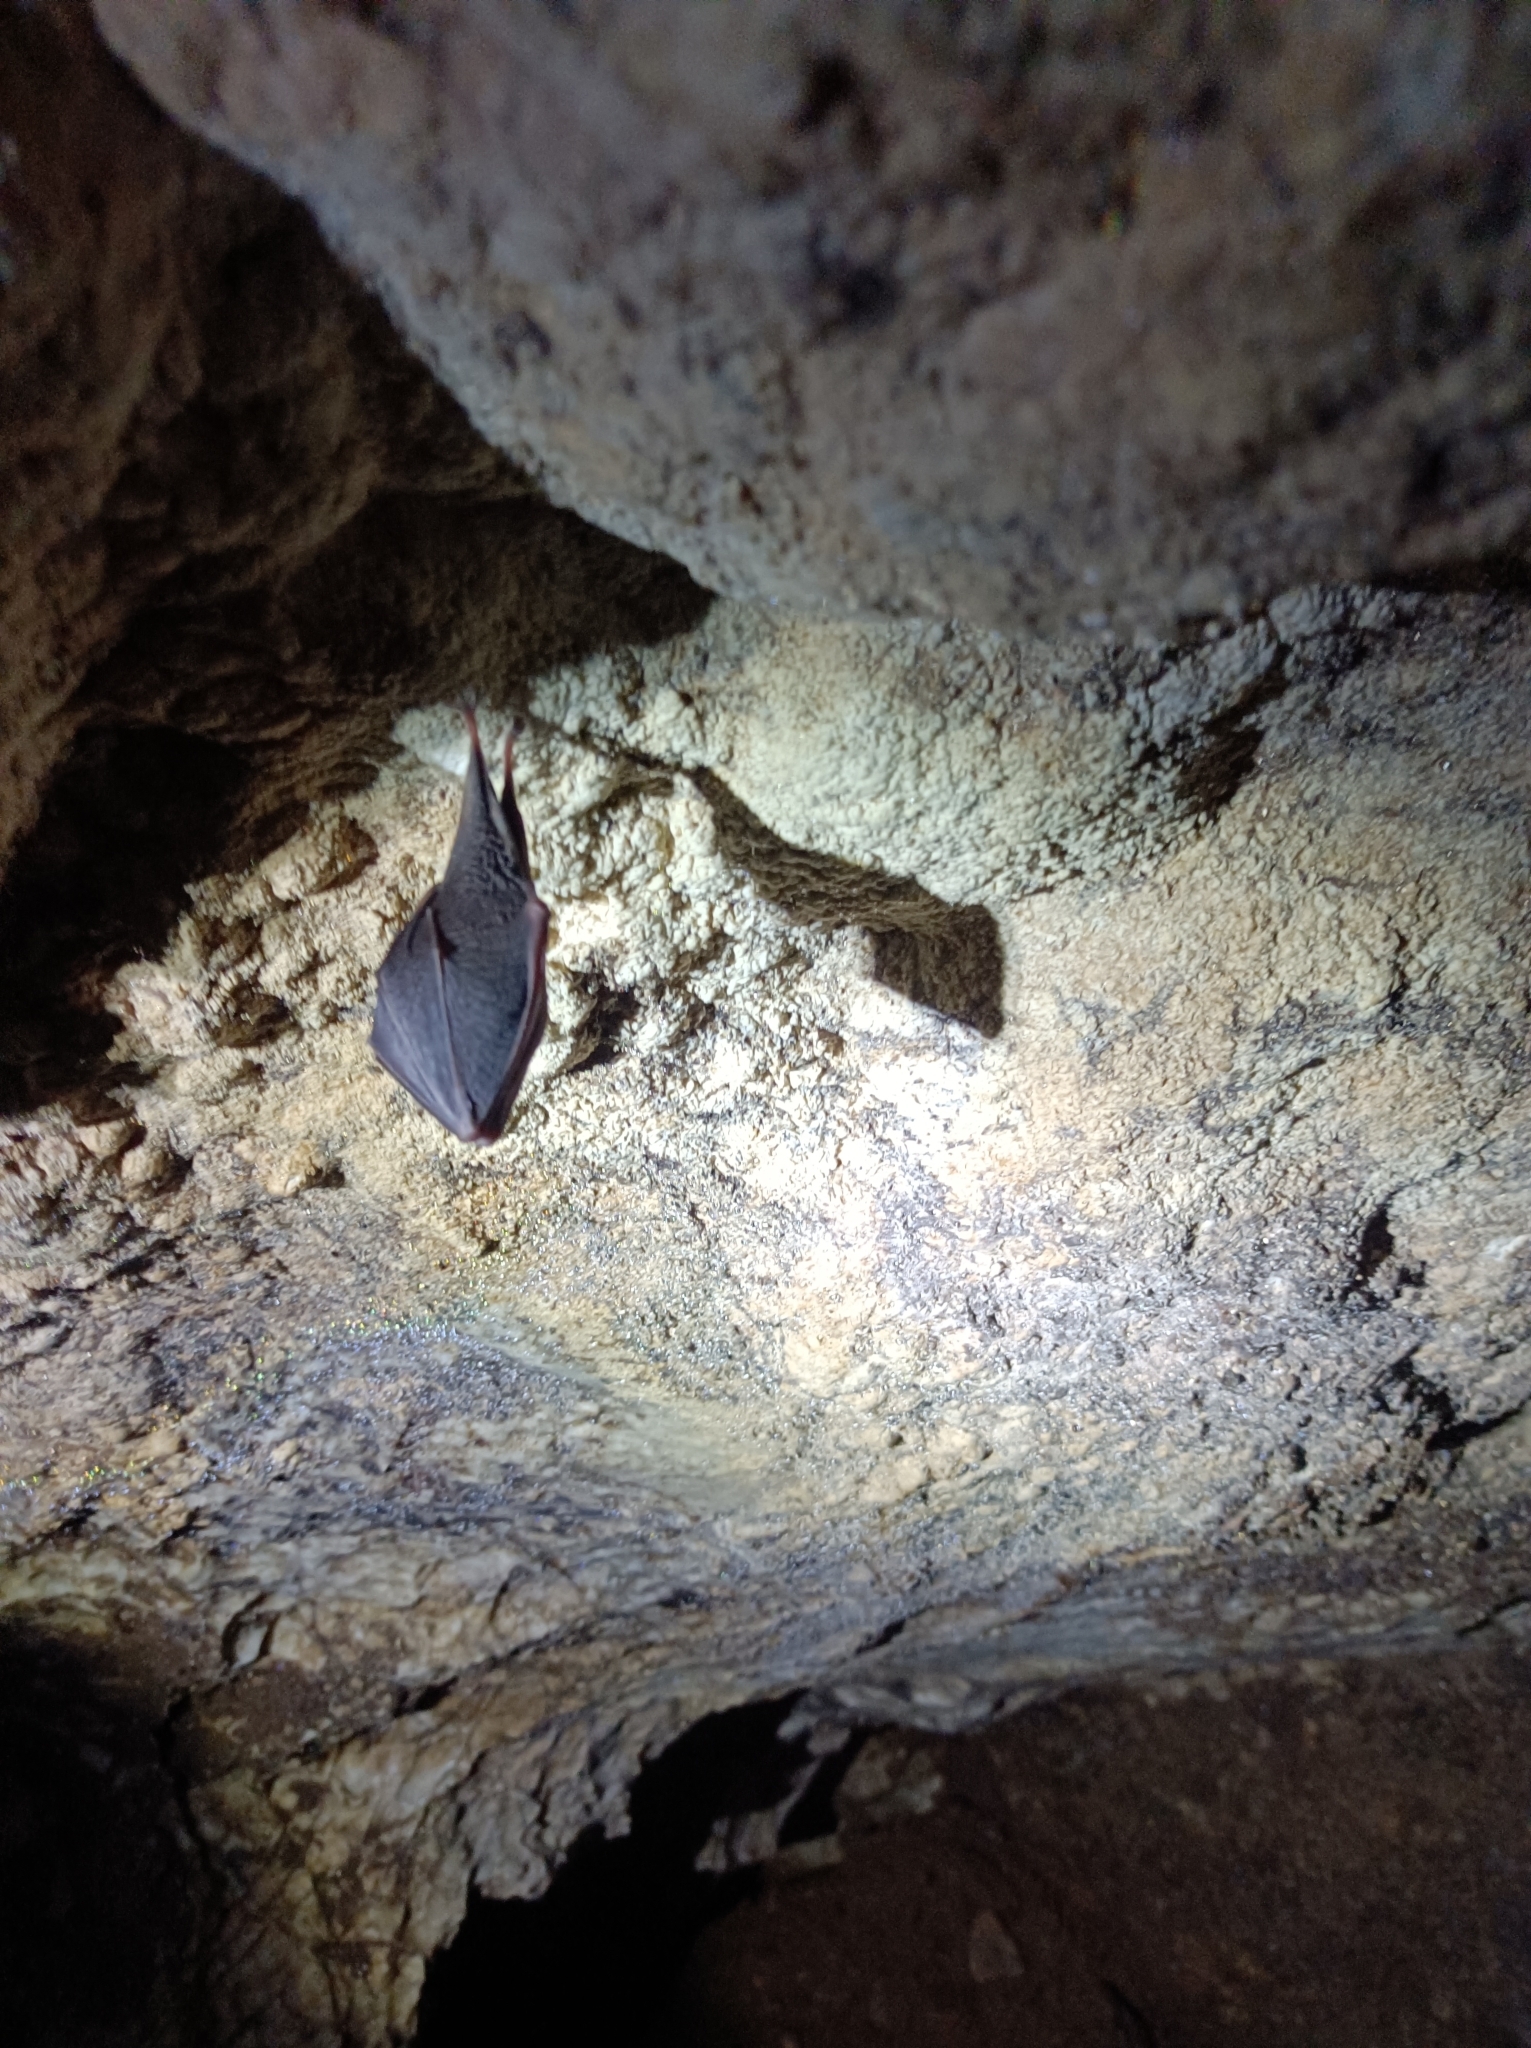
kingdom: Animalia
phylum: Chordata
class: Mammalia
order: Chiroptera
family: Rhinolophidae
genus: Rhinolophus
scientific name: Rhinolophus hipposideros
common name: Lesser horseshoe bat
